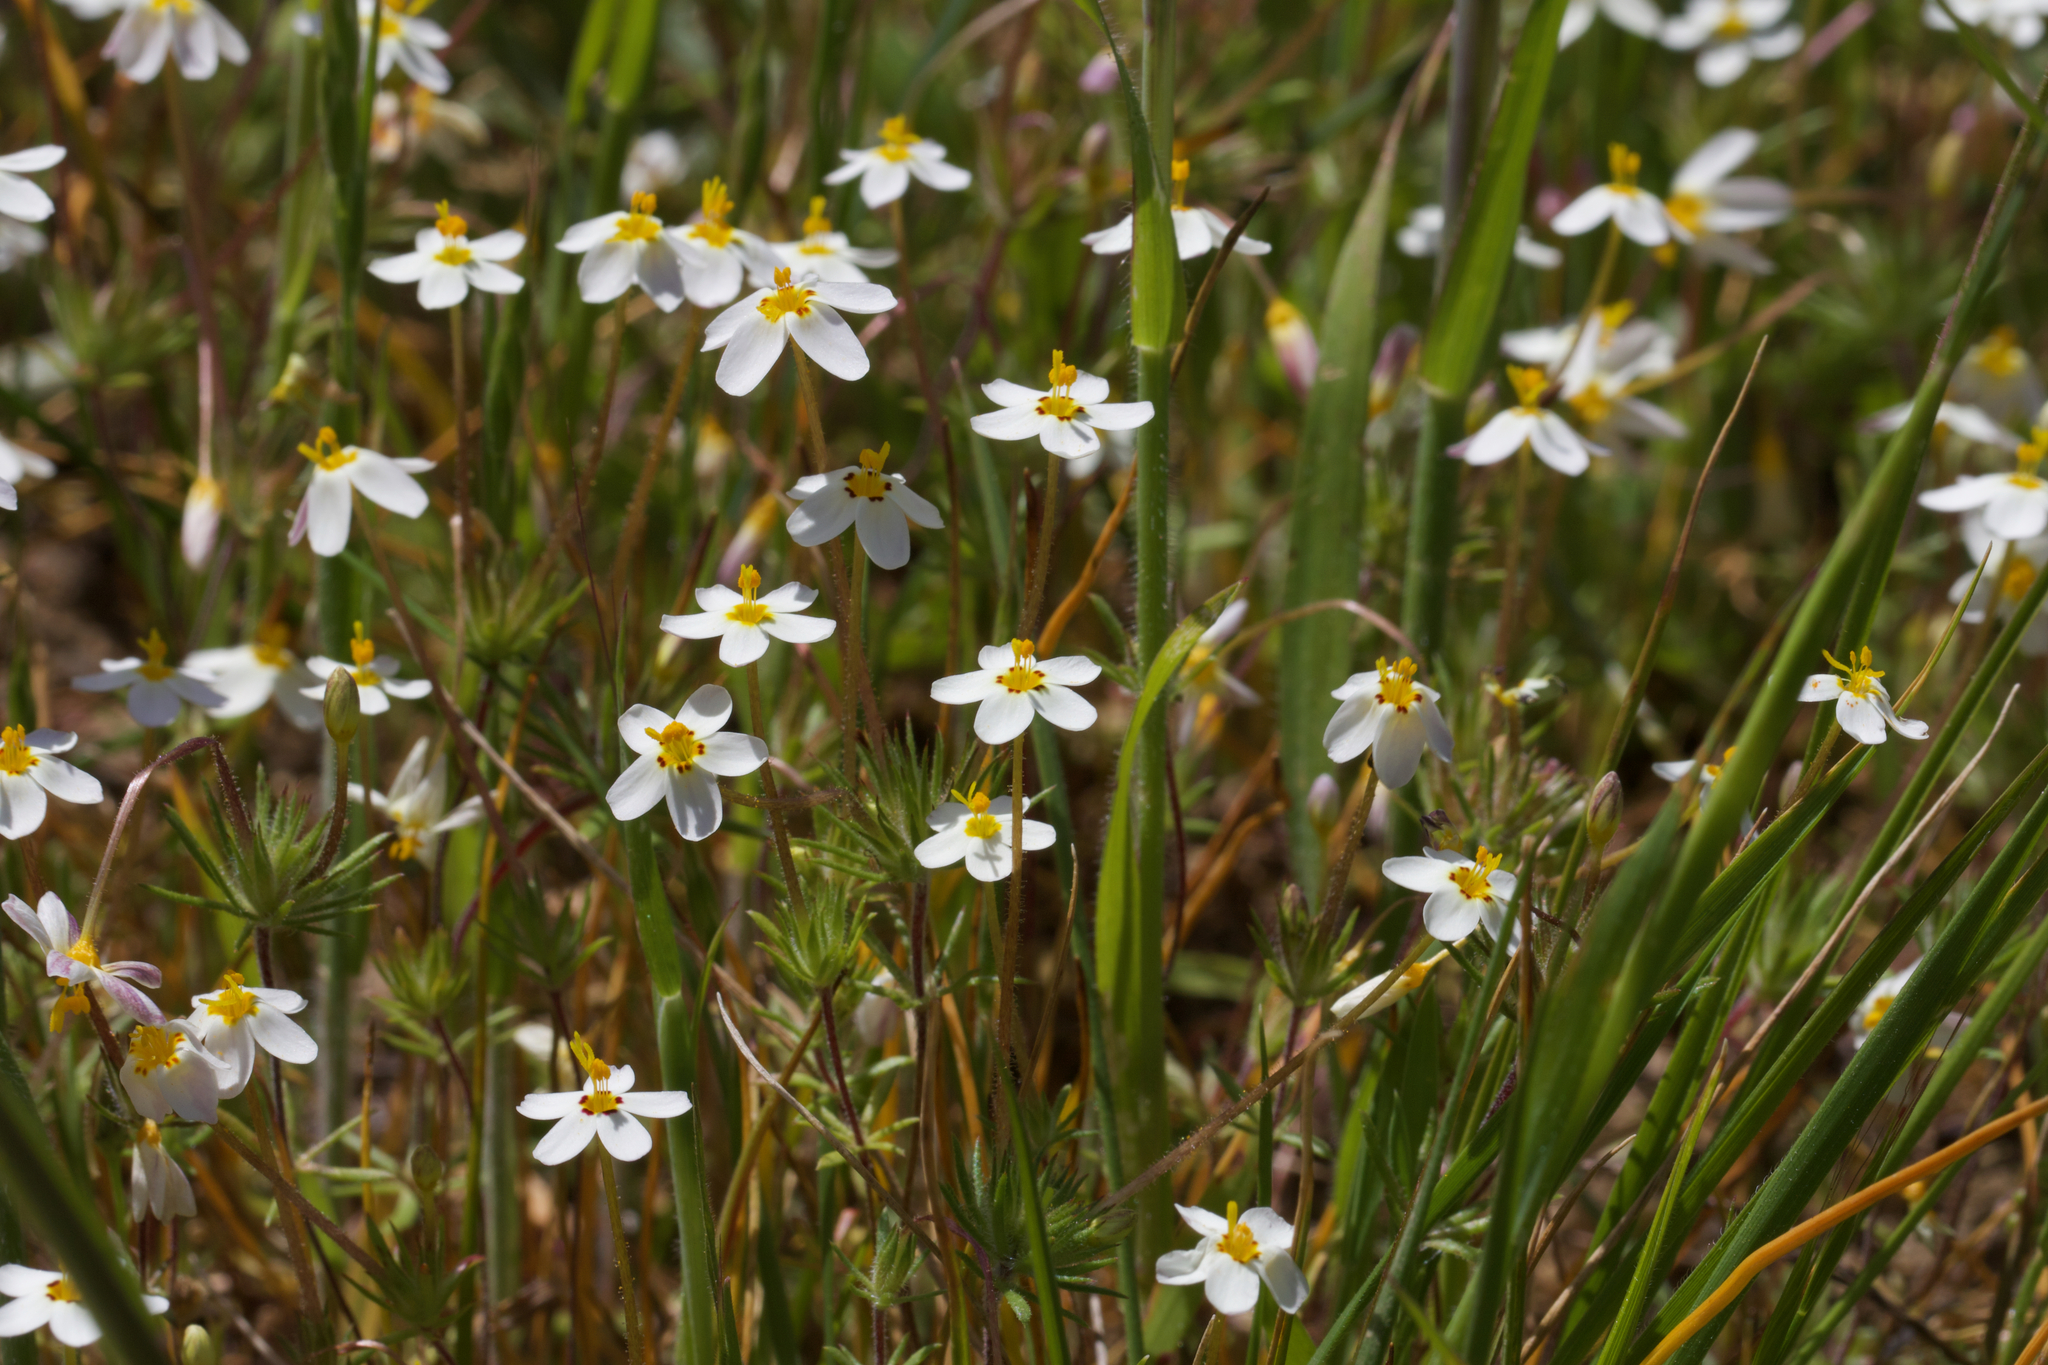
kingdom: Plantae
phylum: Tracheophyta
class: Magnoliopsida
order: Ericales
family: Polemoniaceae
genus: Leptosiphon
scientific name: Leptosiphon parviflorus
